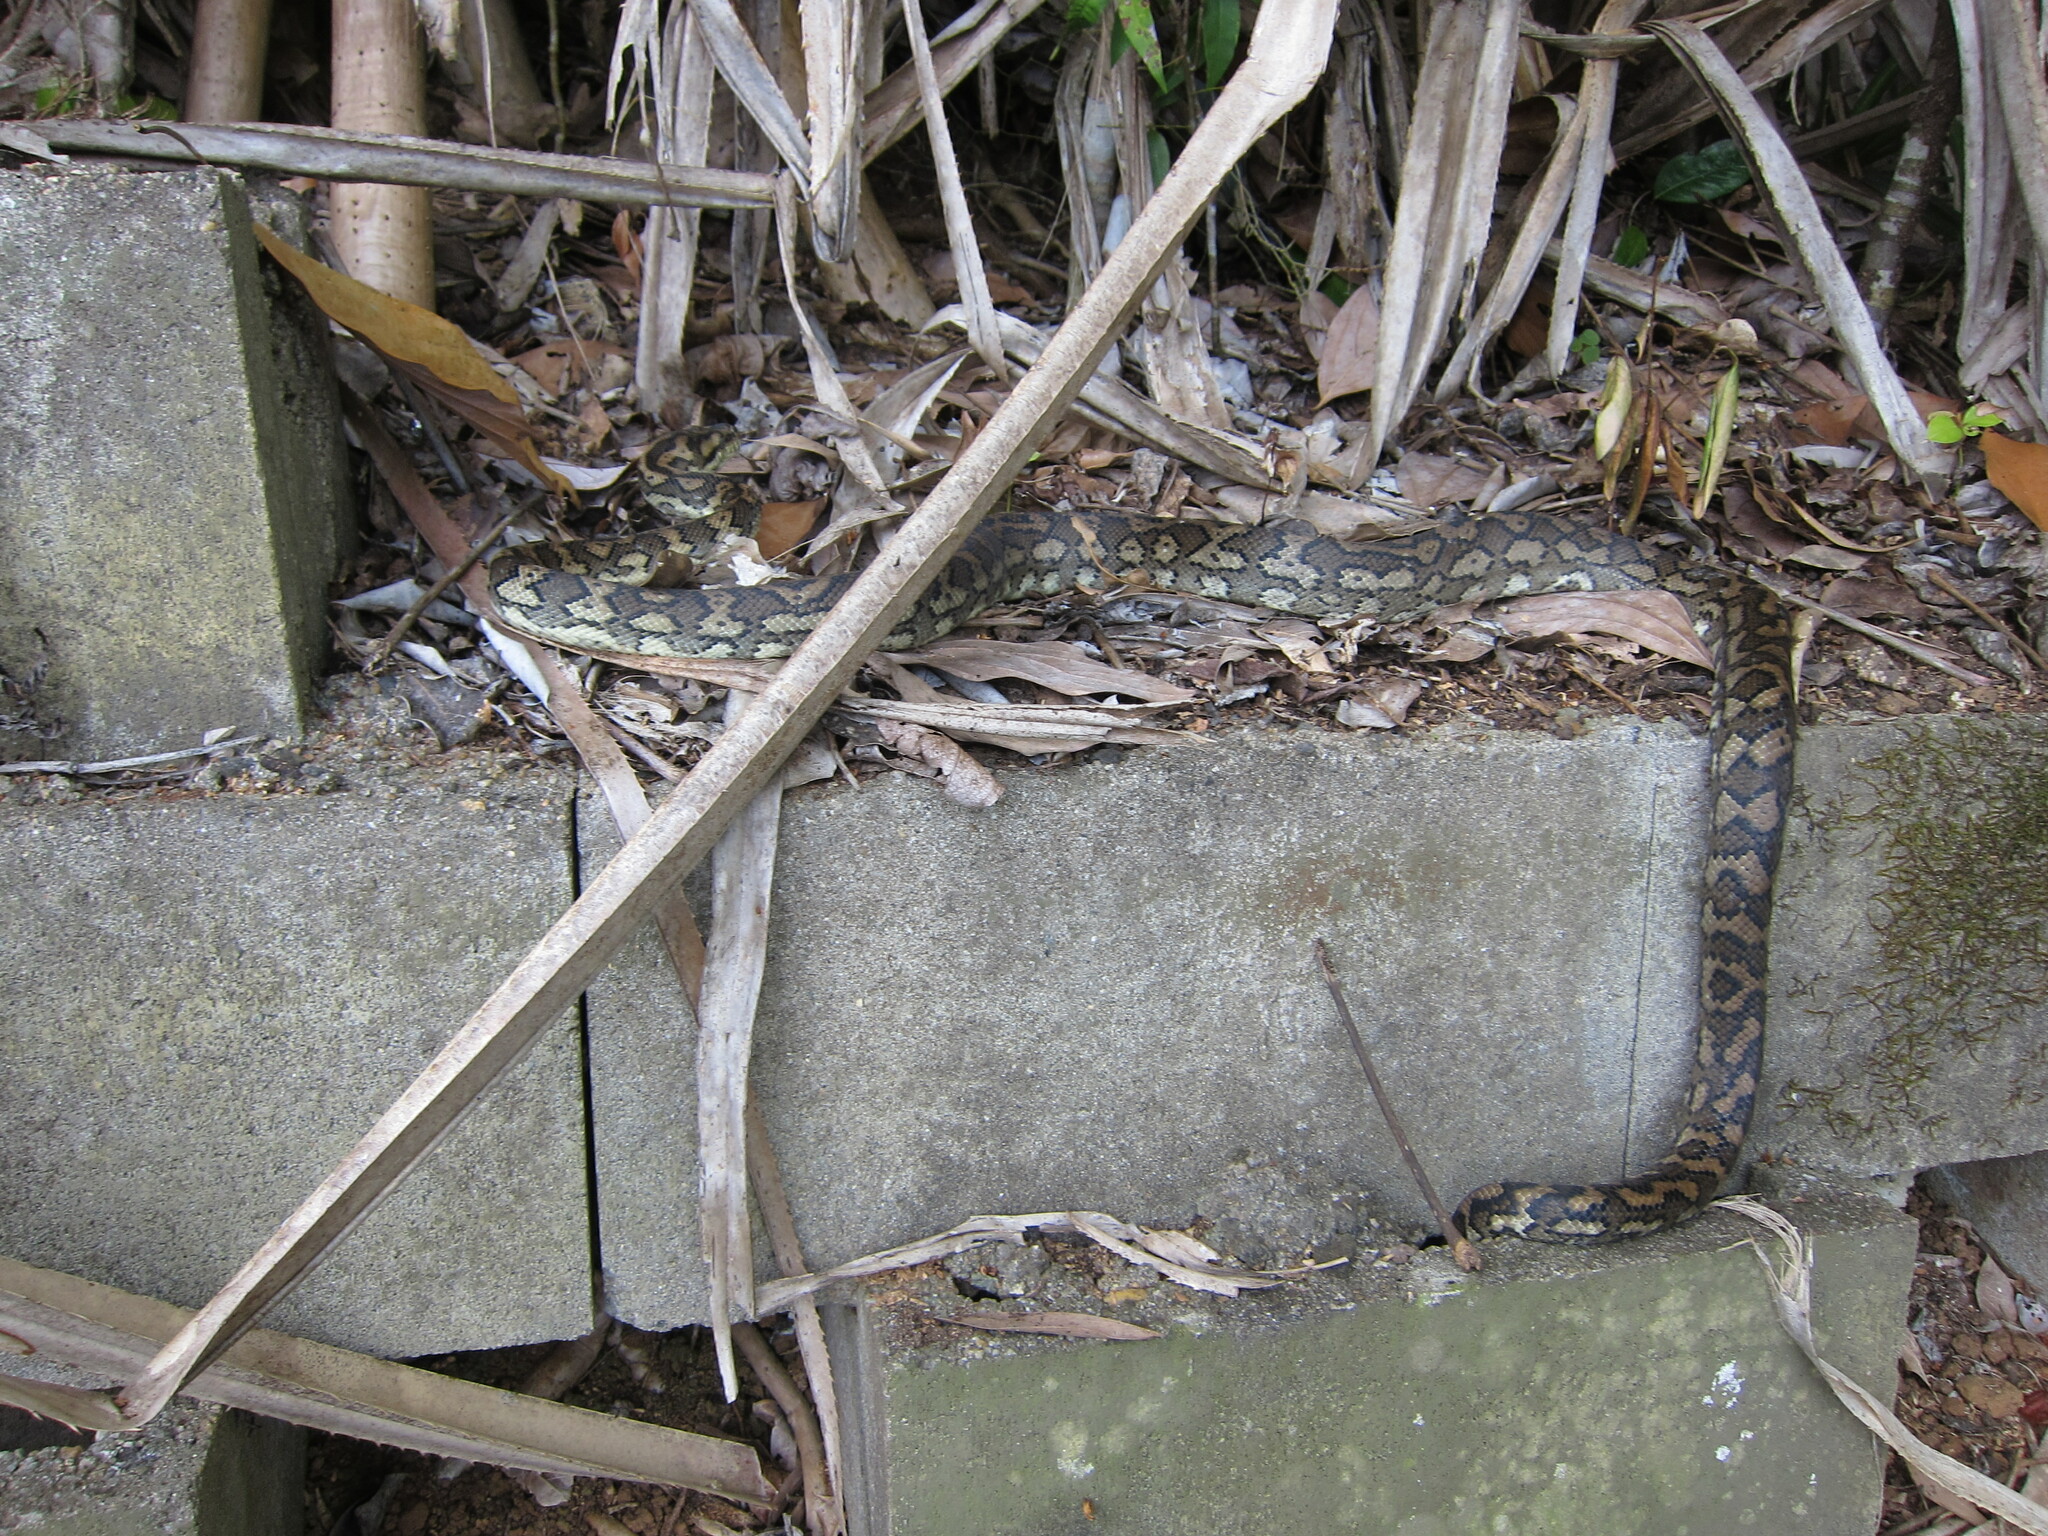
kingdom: Animalia
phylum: Chordata
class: Squamata
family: Pythonidae
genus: Morelia
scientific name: Morelia spilota
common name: Carpet python
